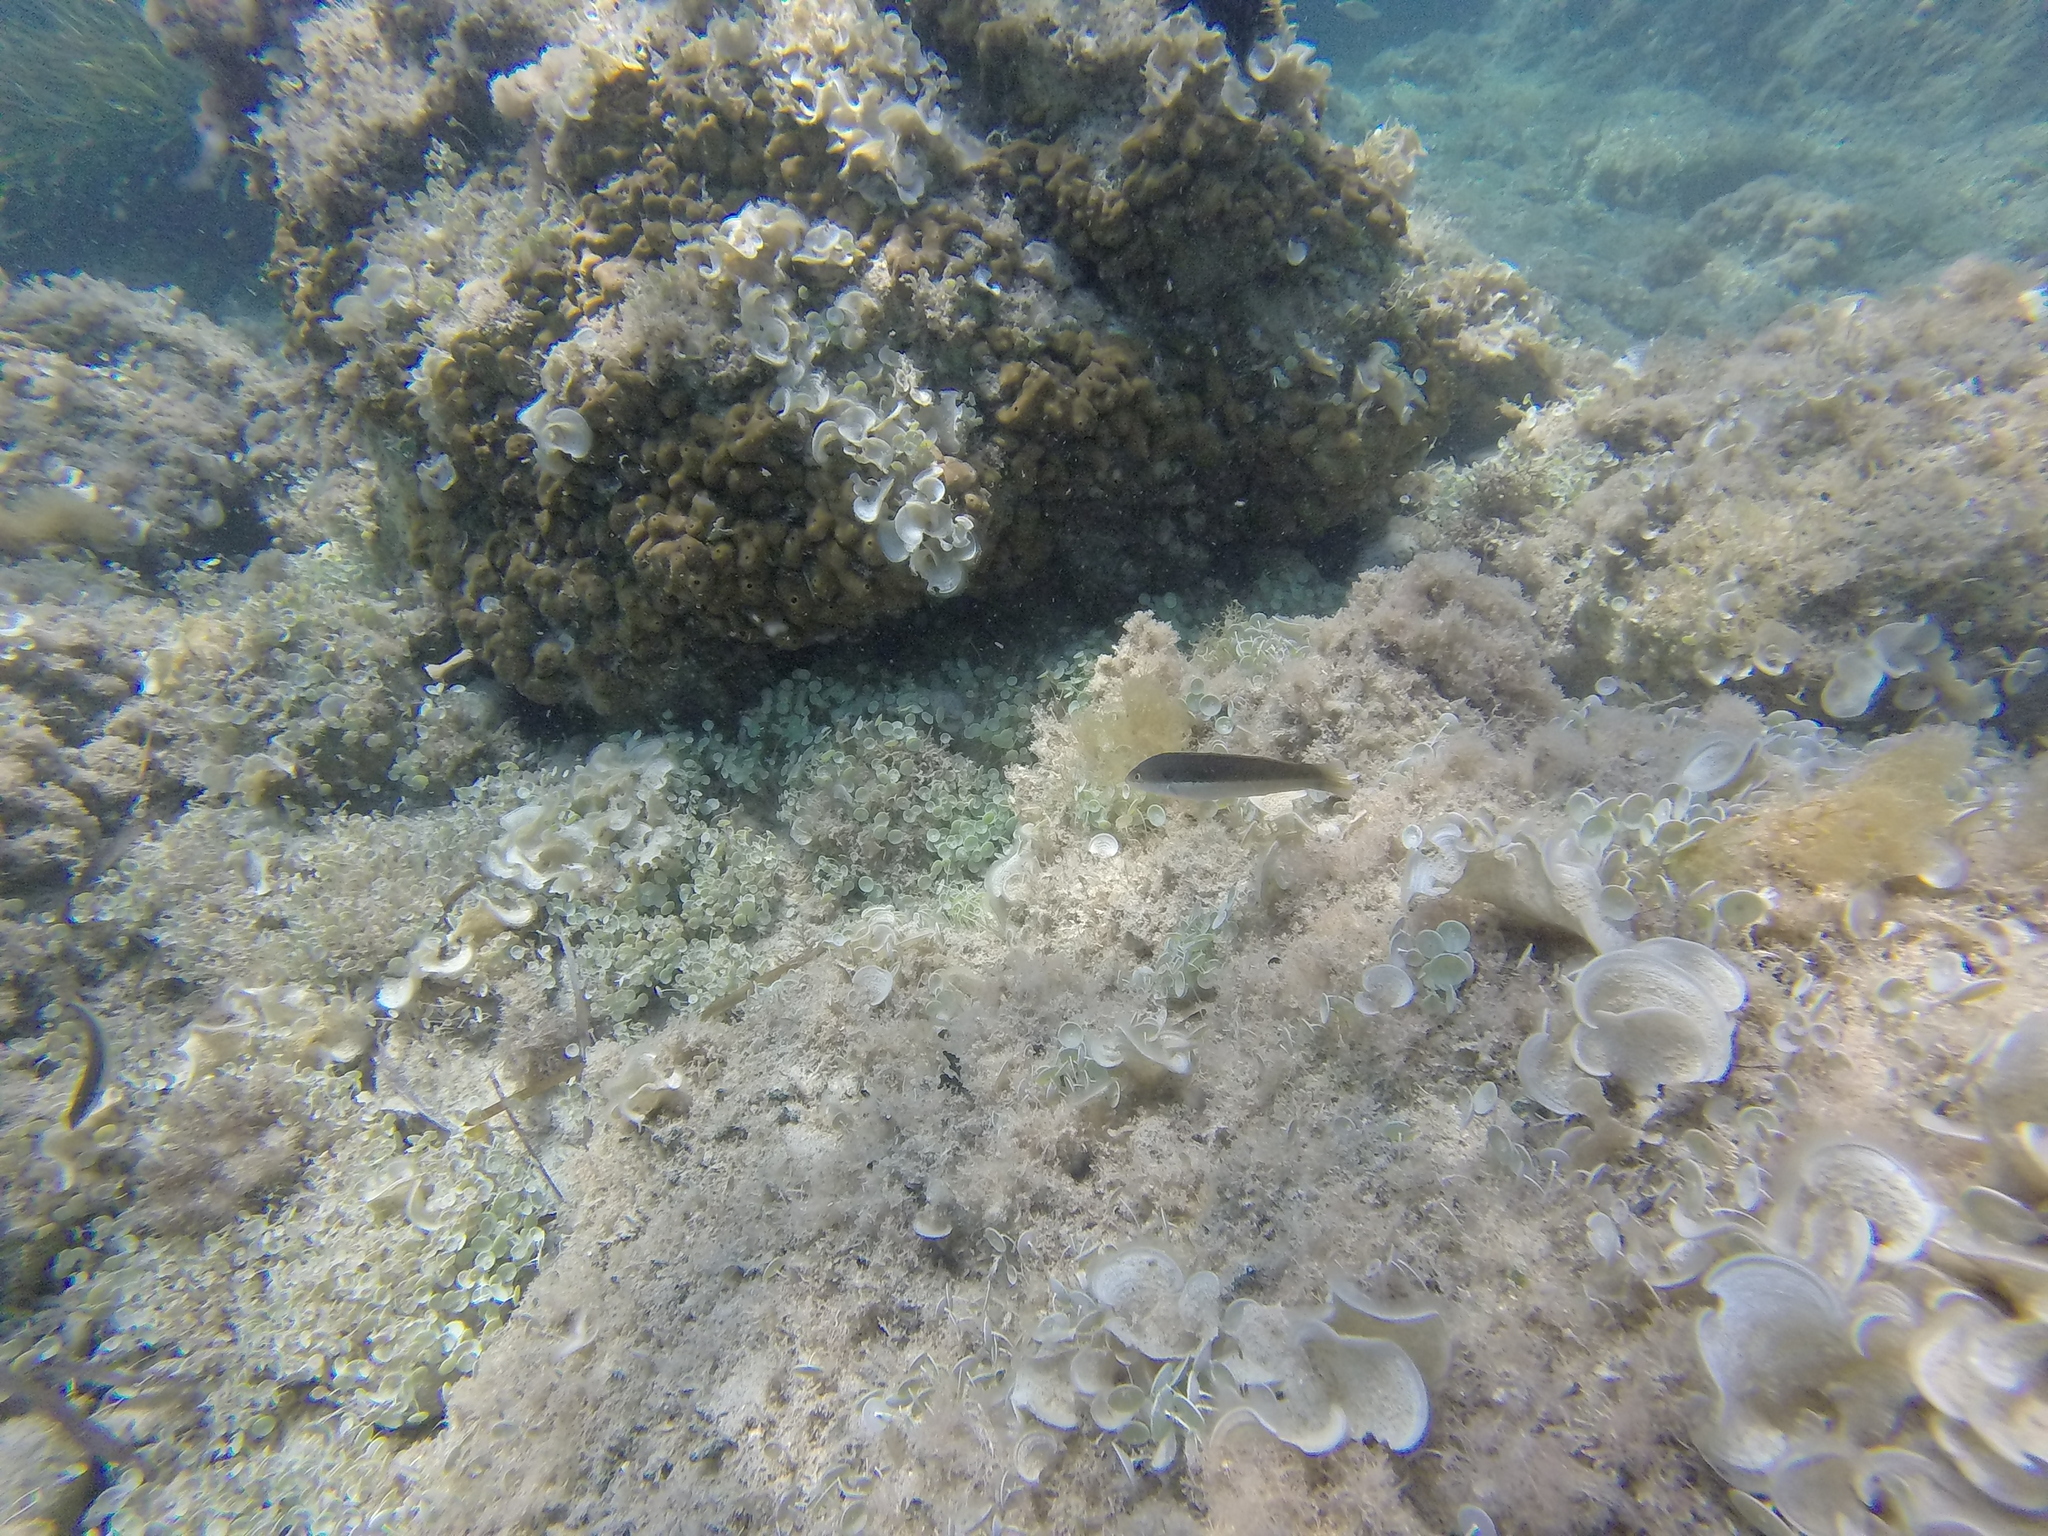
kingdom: Animalia
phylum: Chordata
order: Perciformes
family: Labridae
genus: Coris
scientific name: Coris julis
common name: Rainbow wrasse
